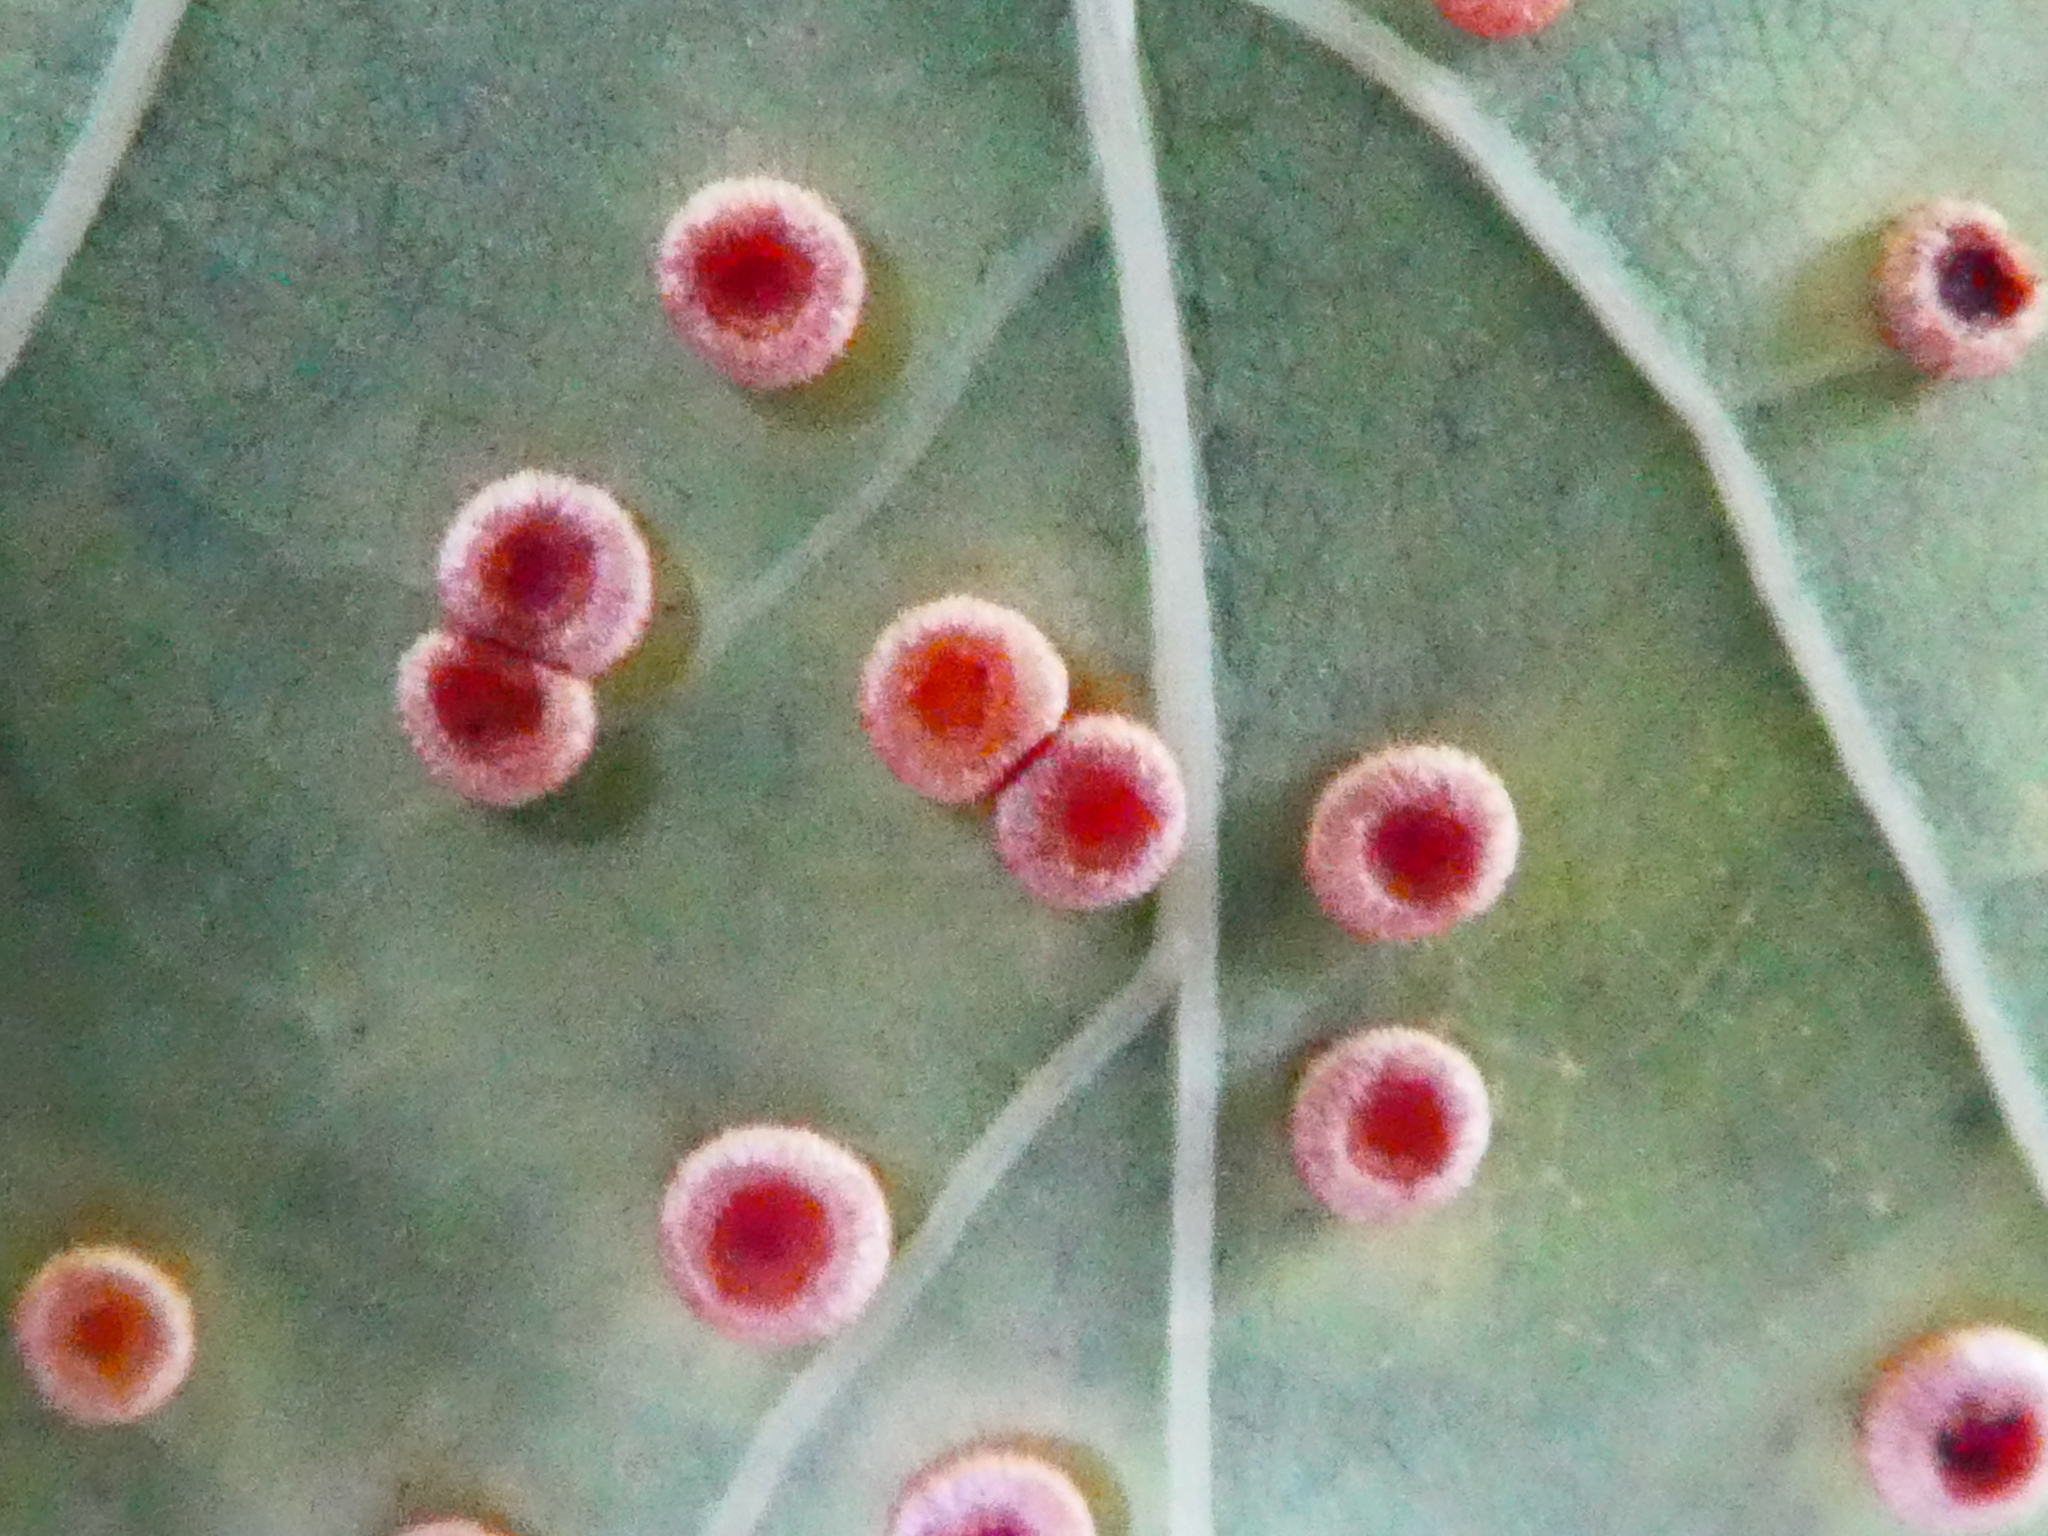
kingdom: Animalia
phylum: Arthropoda
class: Insecta
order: Hymenoptera
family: Cynipidae
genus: Neuroterus
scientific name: Neuroterus numismalis
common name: Silk-button spangle gall
